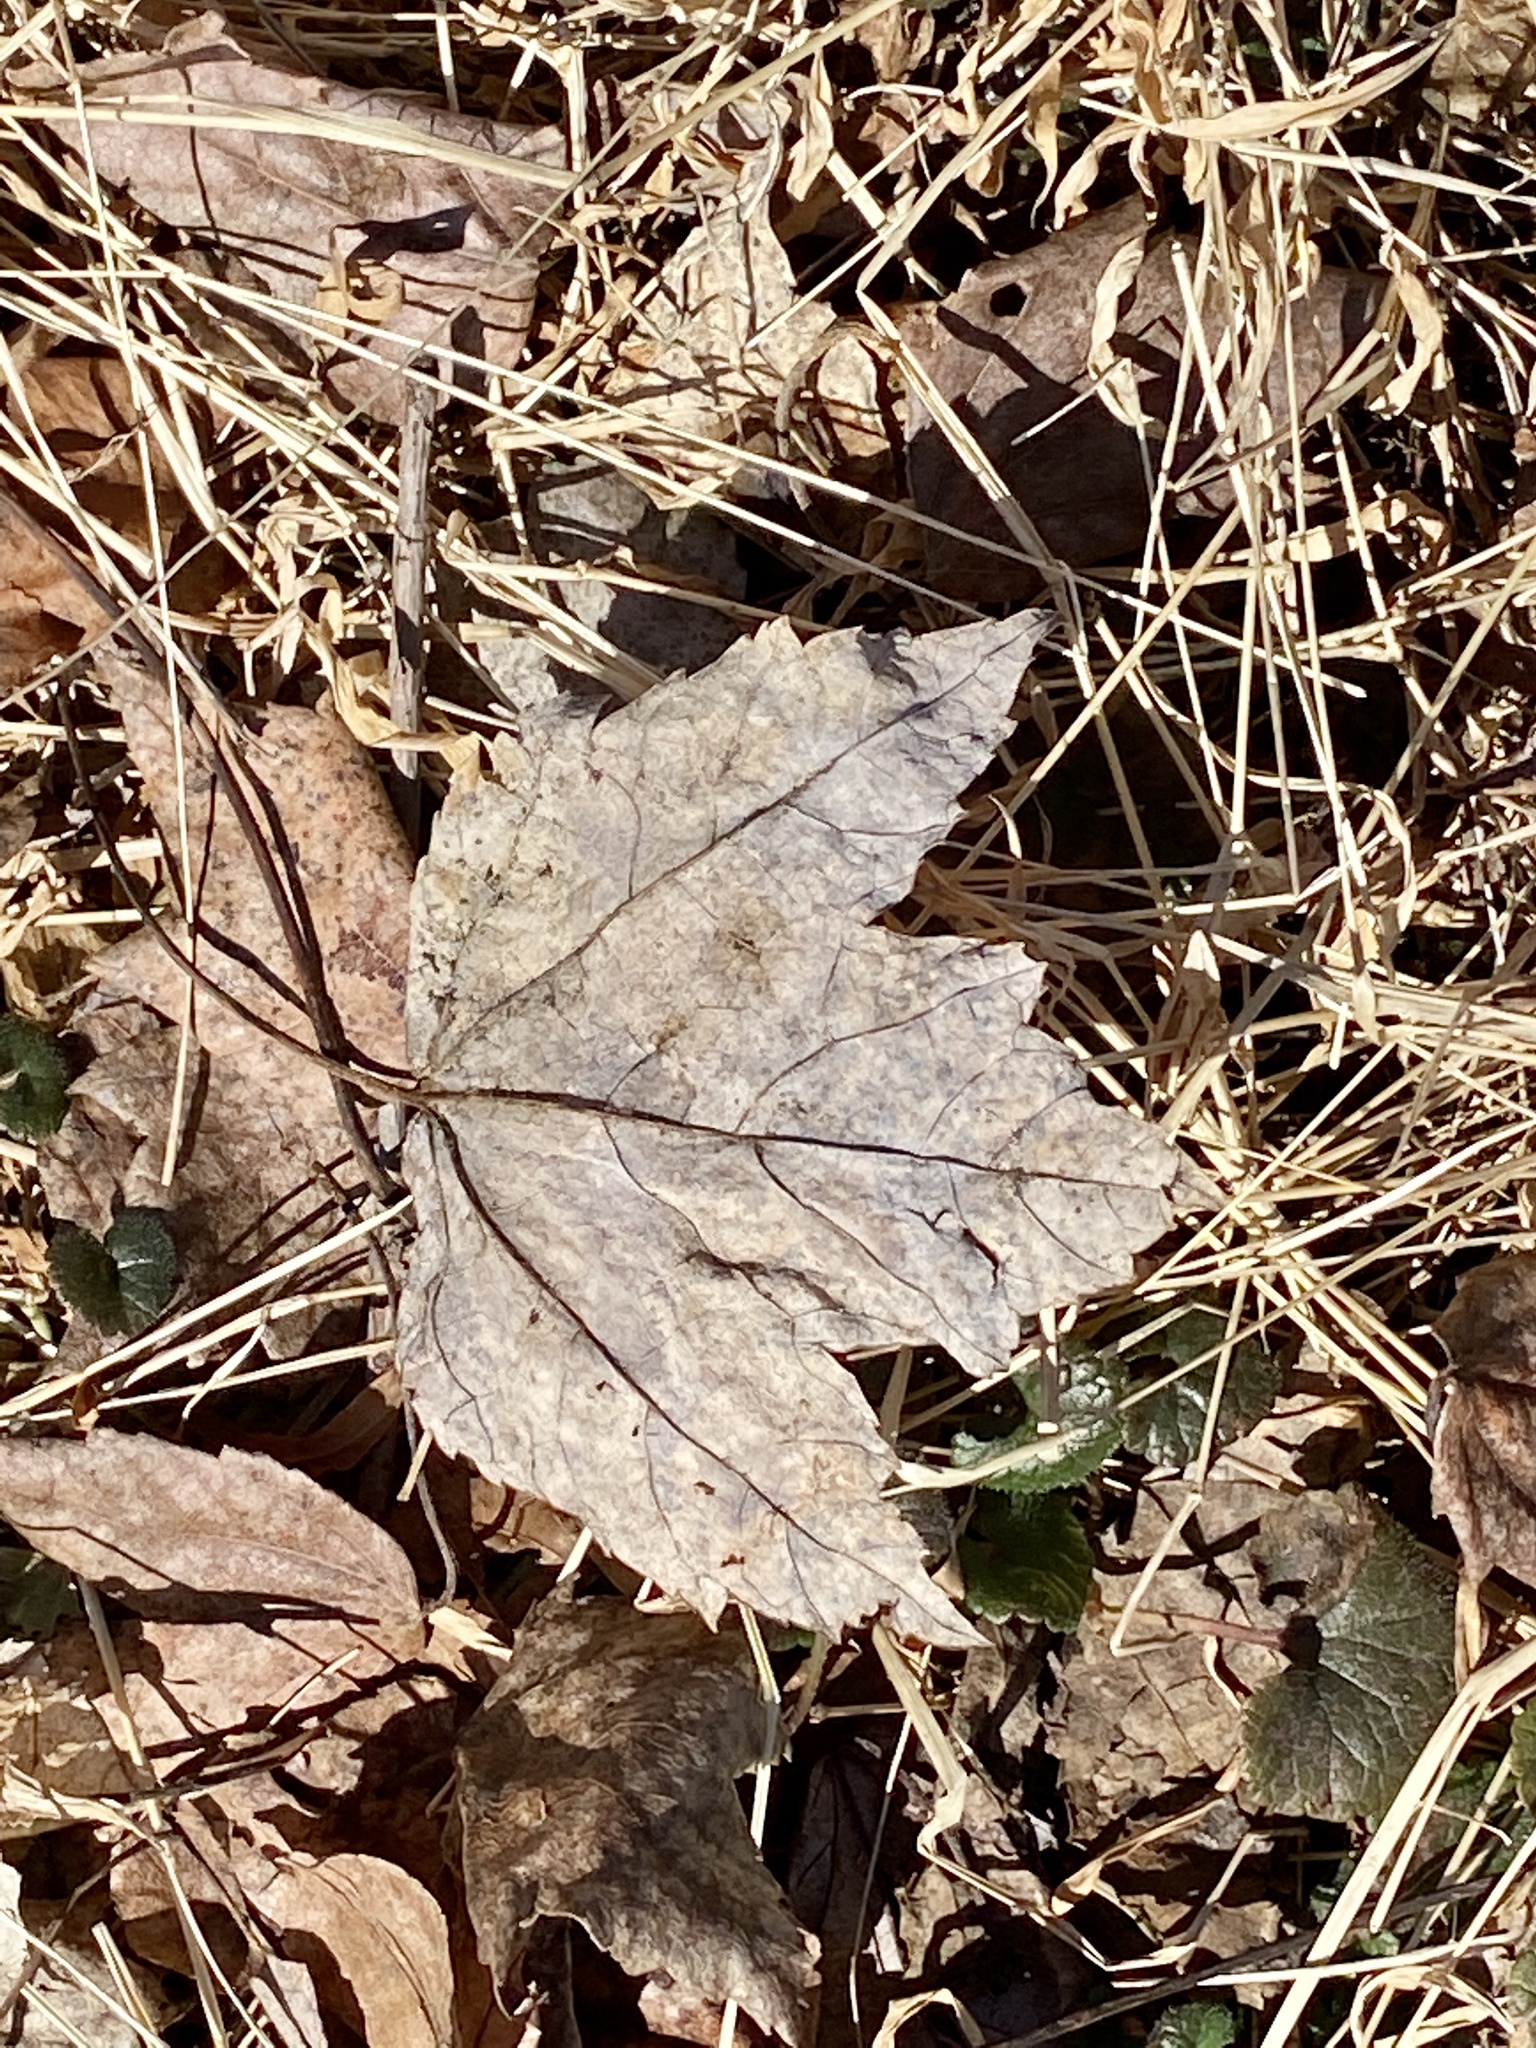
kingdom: Plantae
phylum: Tracheophyta
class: Magnoliopsida
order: Sapindales
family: Sapindaceae
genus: Acer
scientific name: Acer rubrum
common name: Red maple
